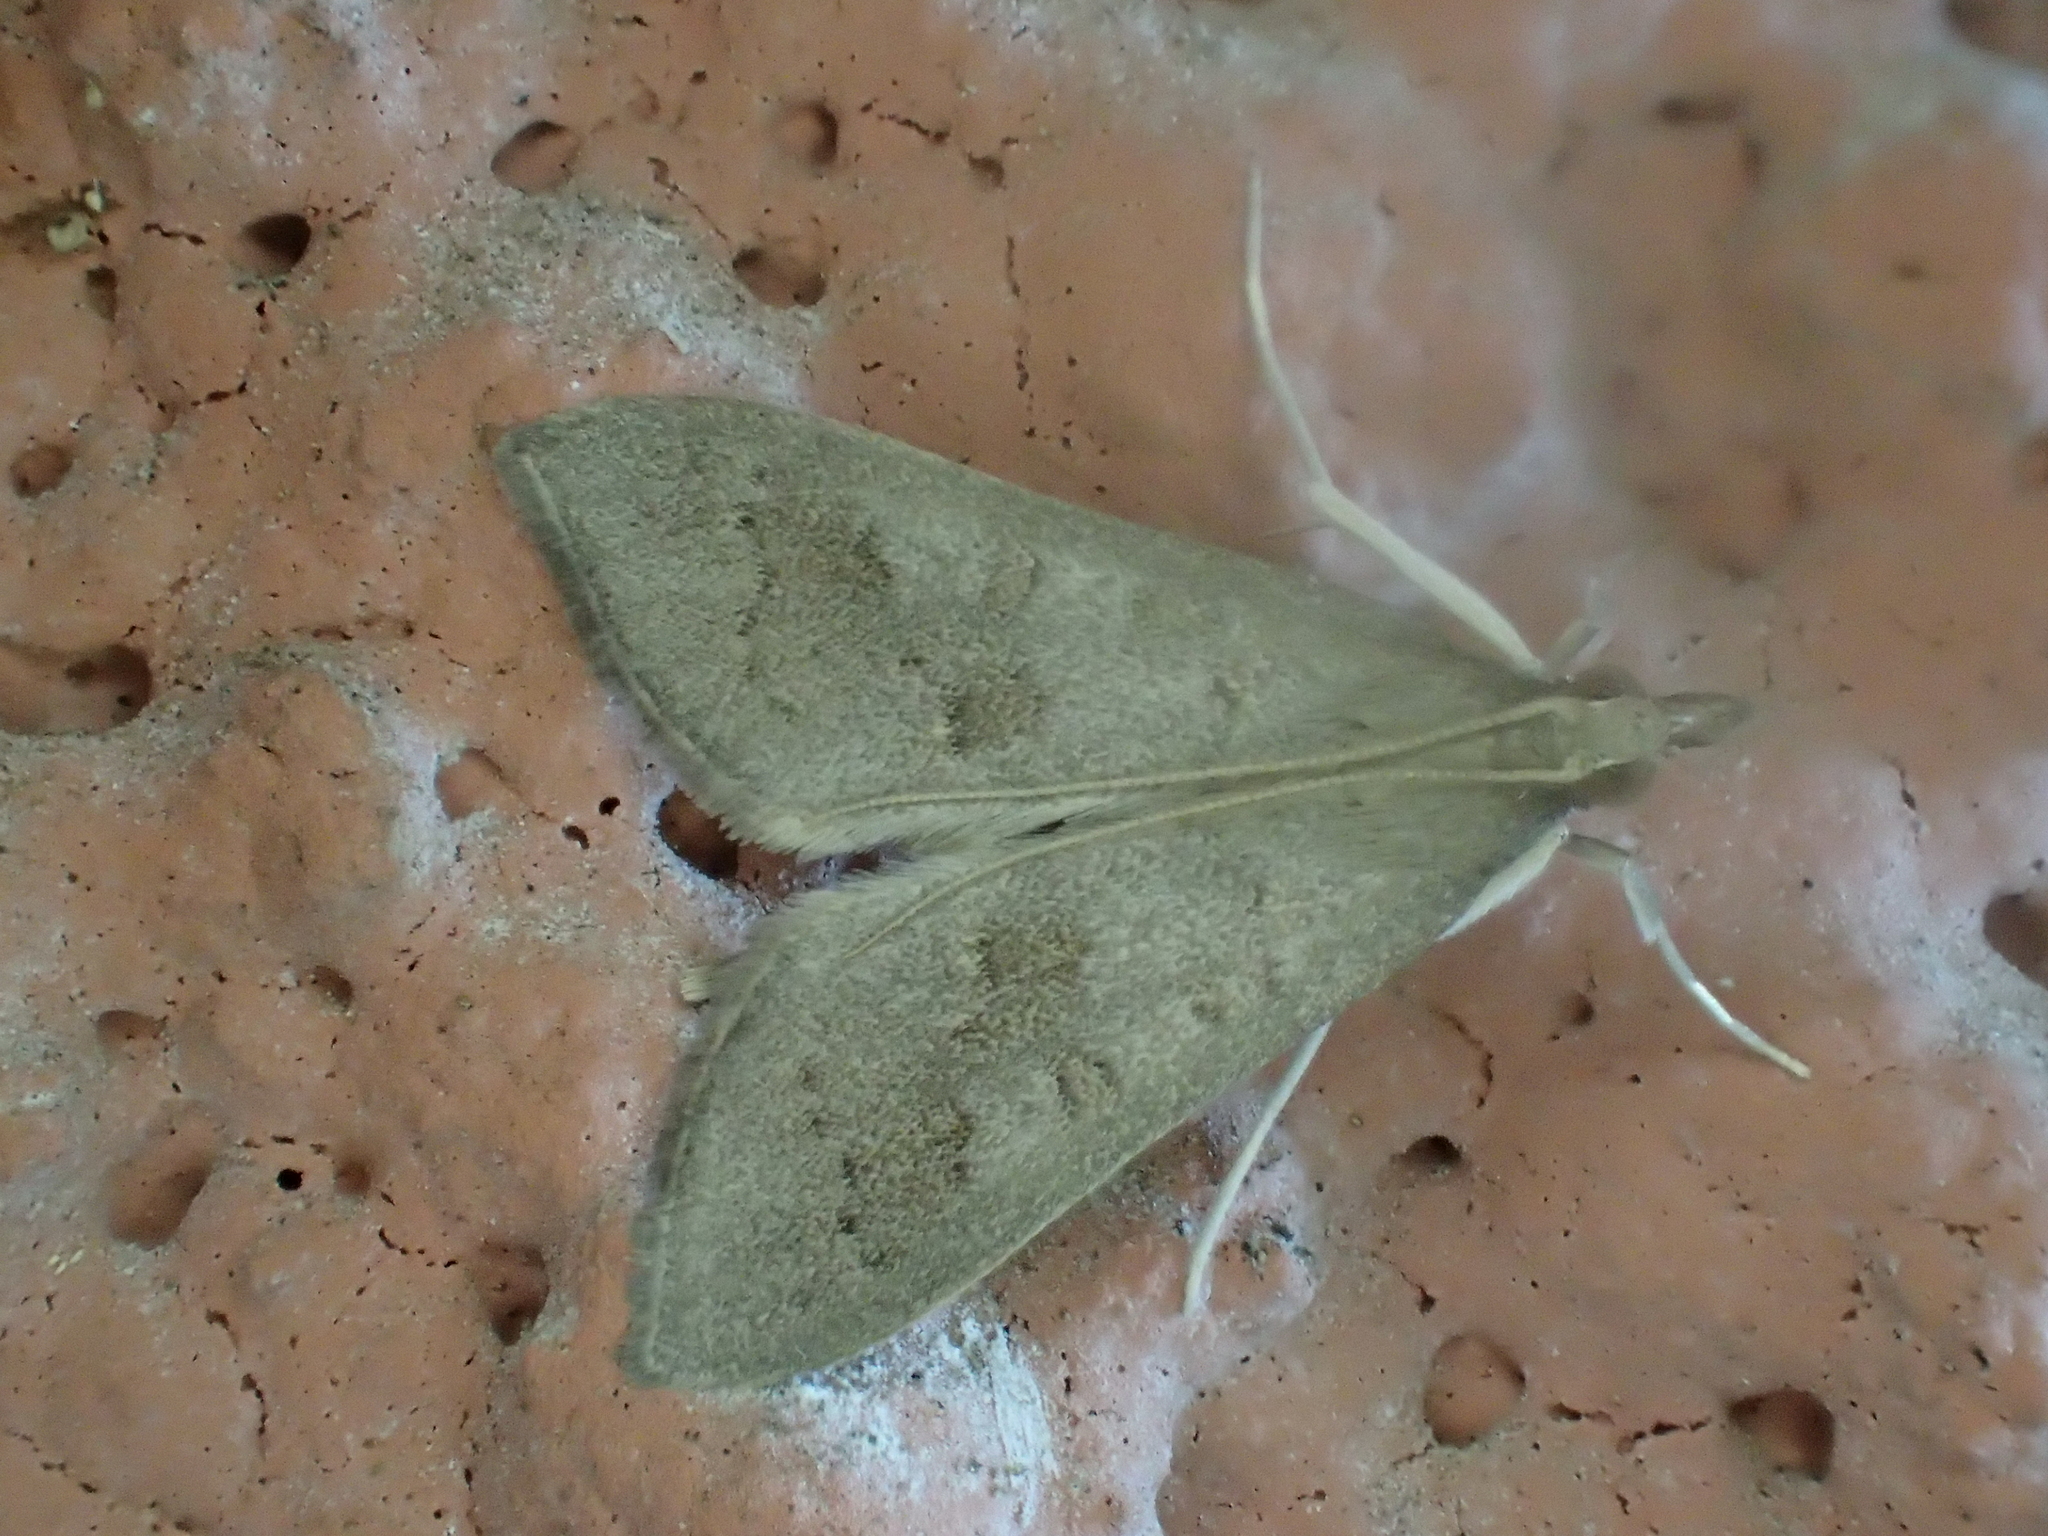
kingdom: Animalia
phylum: Arthropoda
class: Insecta
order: Lepidoptera
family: Crambidae
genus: Mecyna
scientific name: Mecyna asinalis
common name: Coastal pearl
